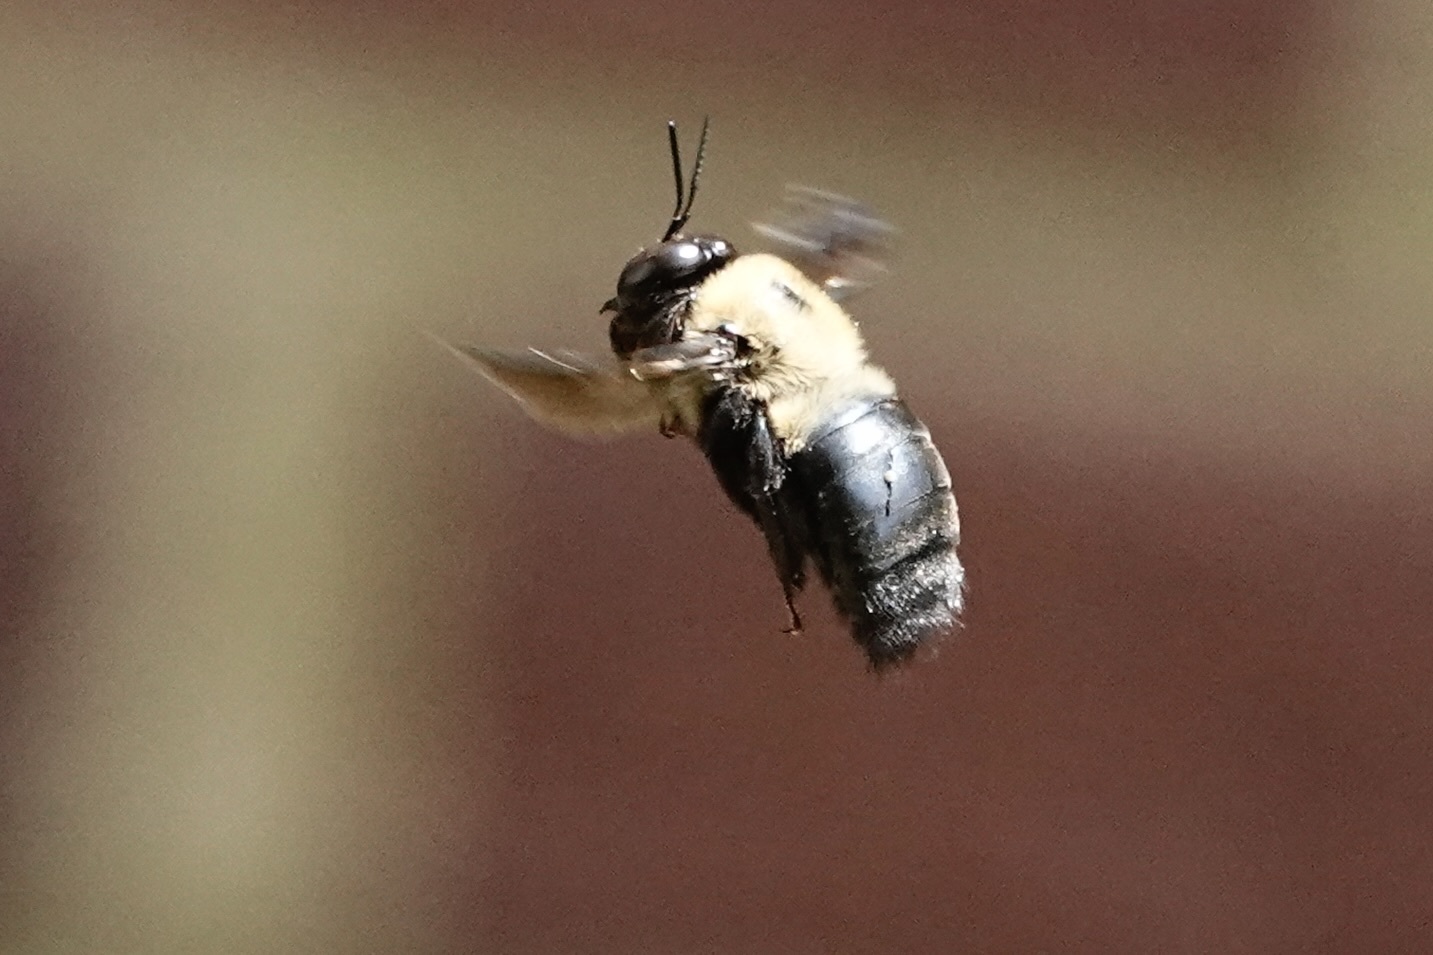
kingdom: Animalia
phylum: Arthropoda
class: Insecta
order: Hymenoptera
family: Apidae
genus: Xylocopa
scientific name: Xylocopa virginica
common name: Carpenter bee
